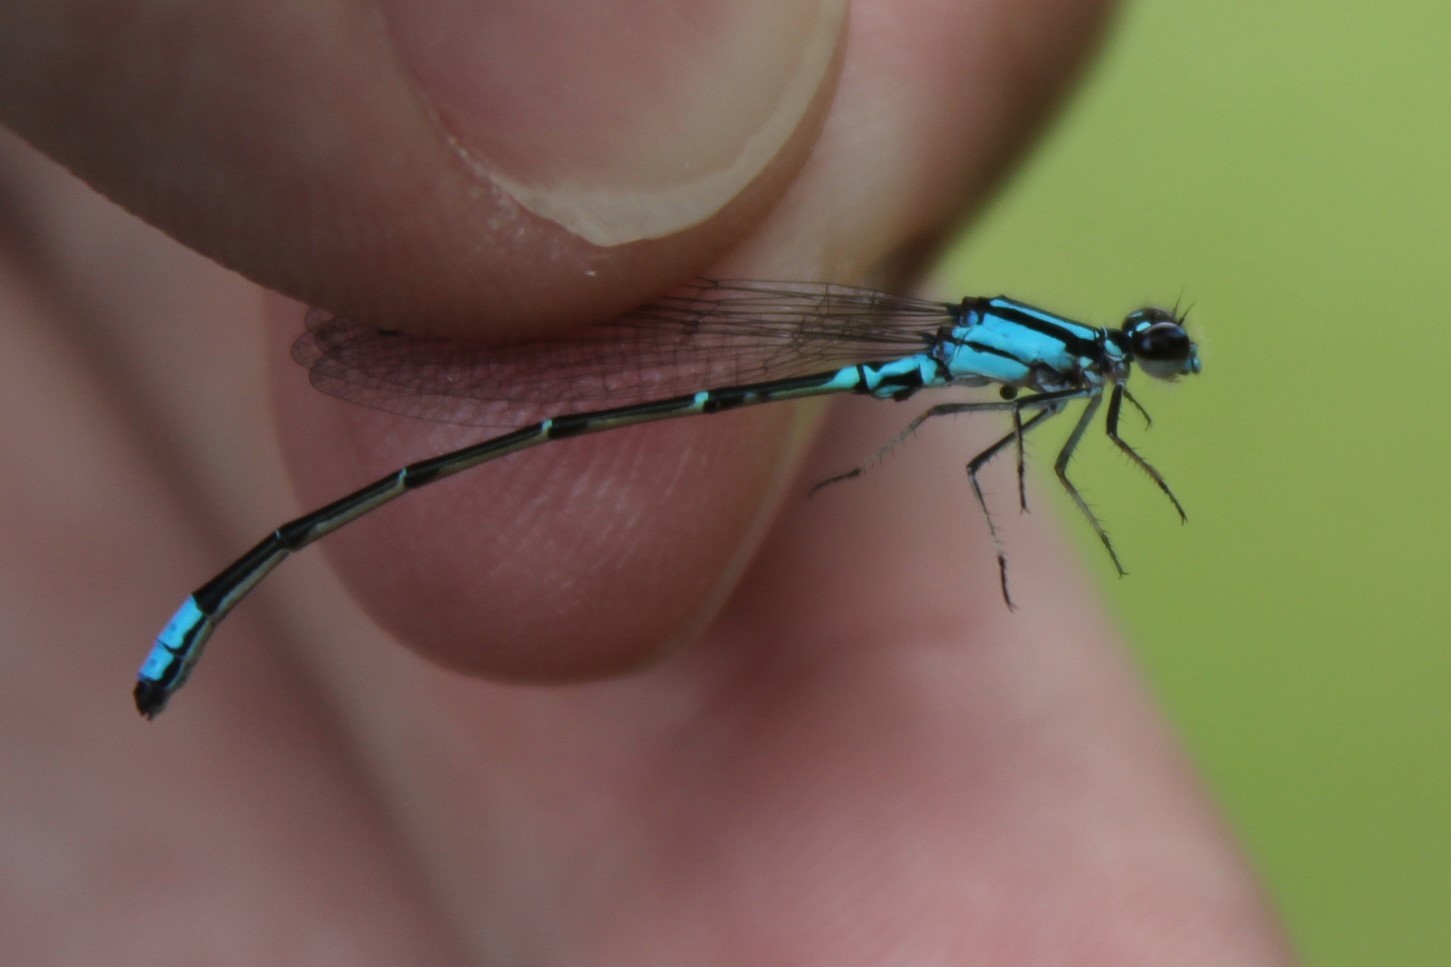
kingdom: Animalia
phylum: Arthropoda
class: Insecta
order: Odonata
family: Coenagrionidae
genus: Enallagma
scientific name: Enallagma geminatum
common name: Skimming bluet
